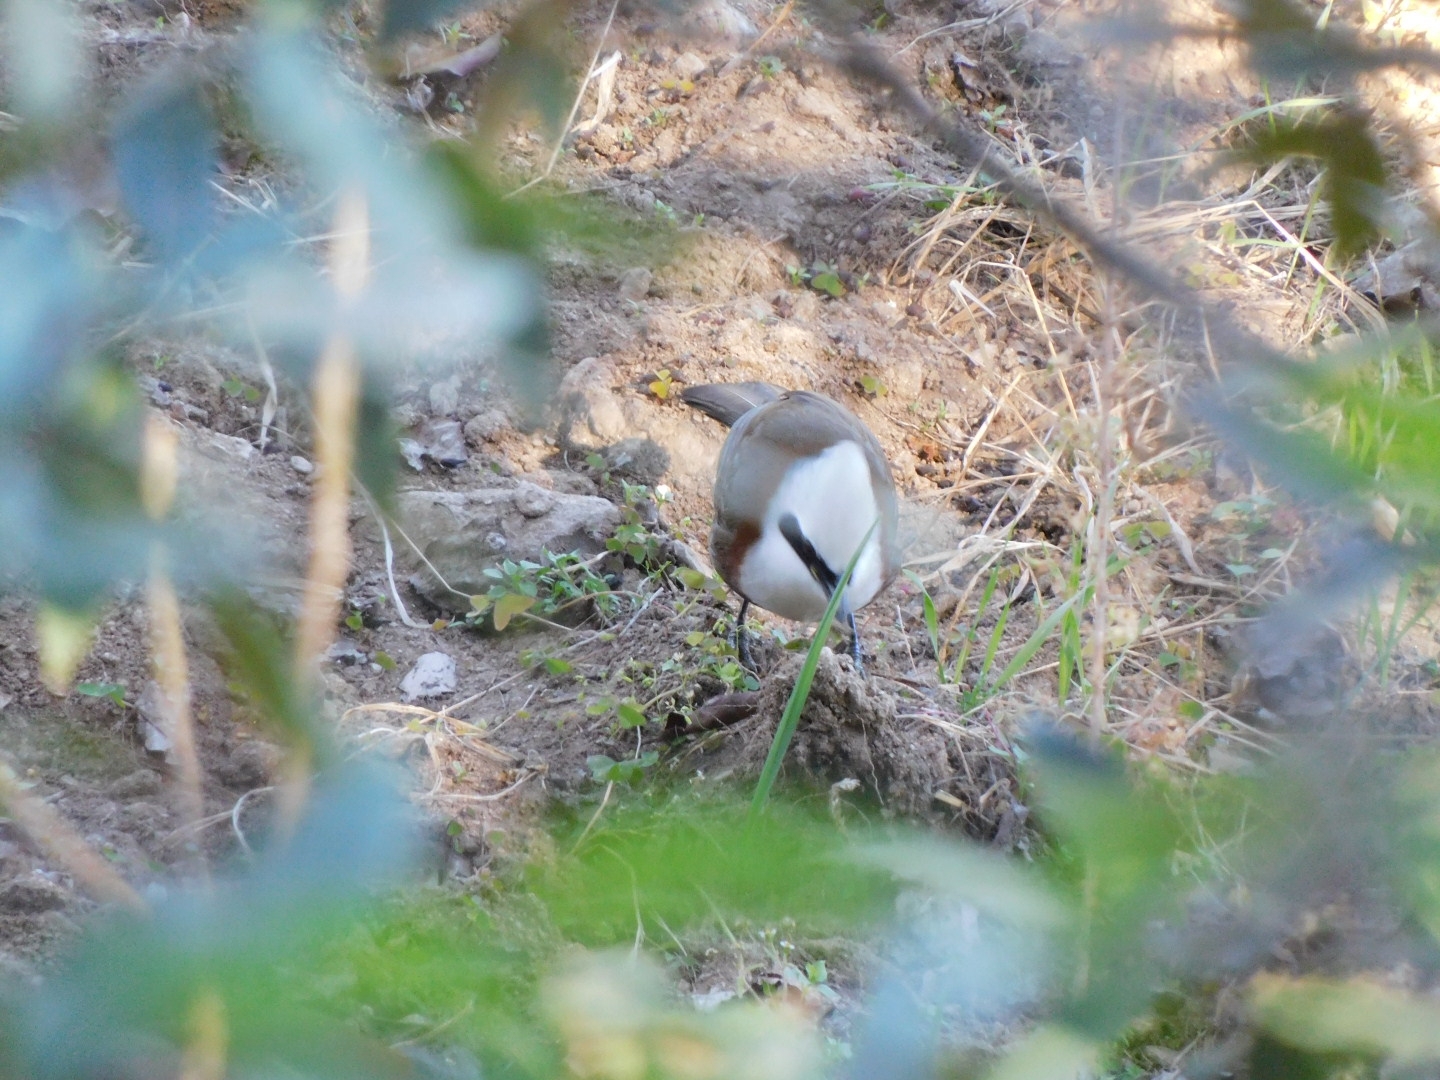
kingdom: Animalia
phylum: Chordata
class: Aves
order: Passeriformes
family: Leiothrichidae
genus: Garrulax
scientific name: Garrulax leucolophus
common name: White-crested laughingthrush
